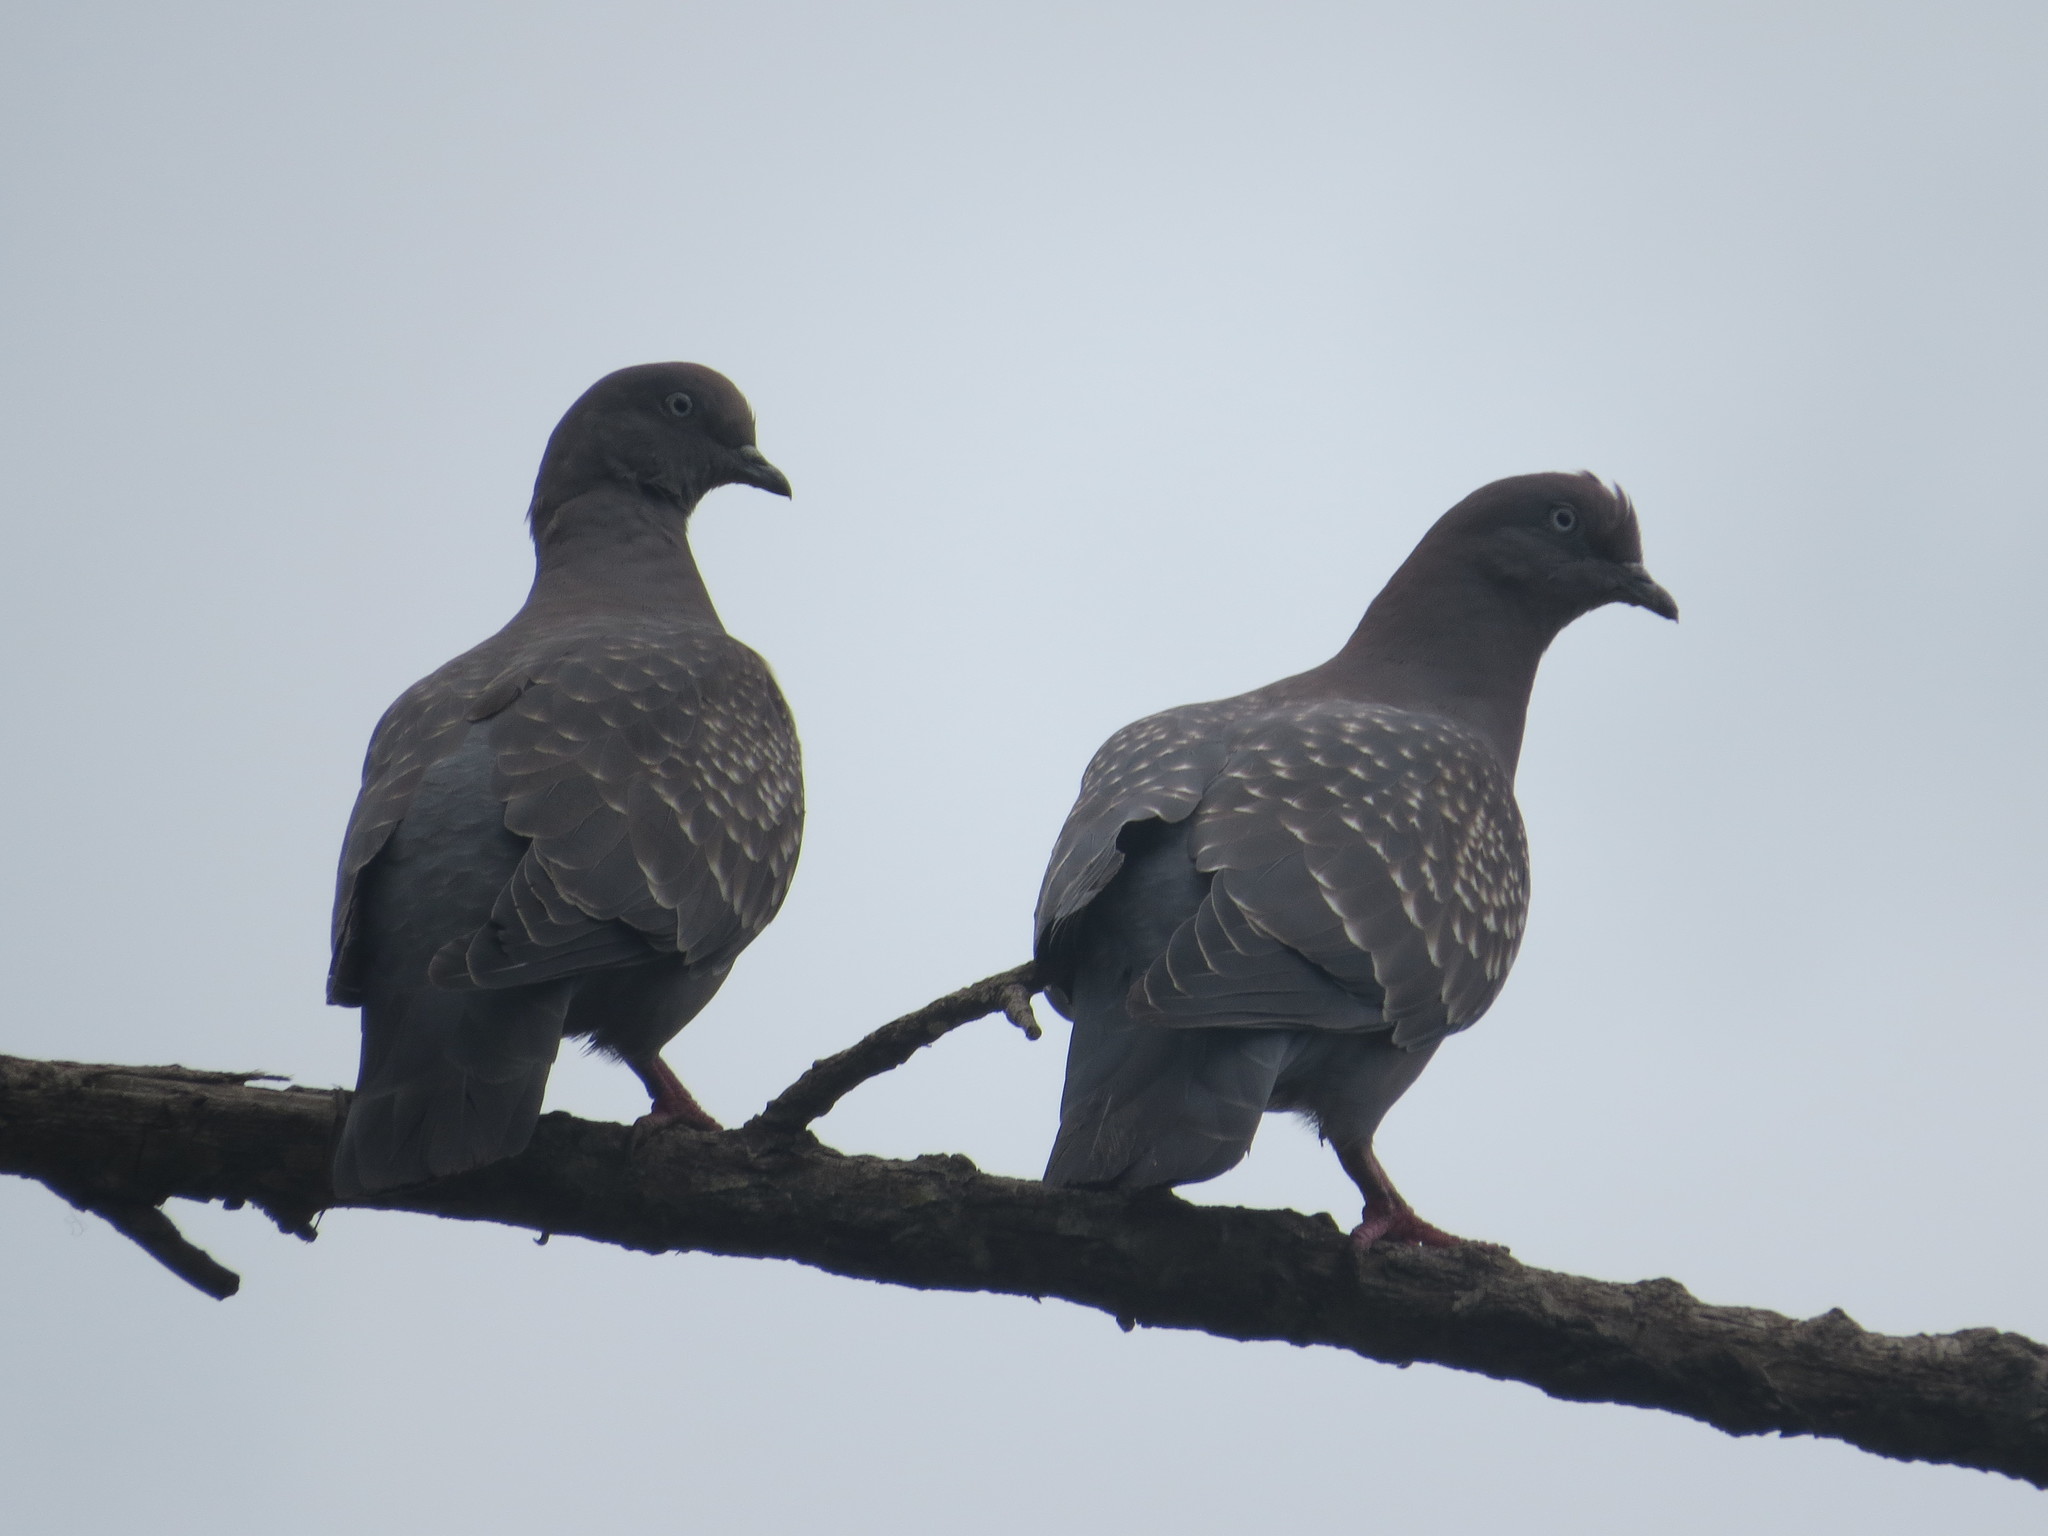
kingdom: Animalia
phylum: Chordata
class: Aves
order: Columbiformes
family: Columbidae
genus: Patagioenas
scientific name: Patagioenas maculosa
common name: Spot-winged pigeon
